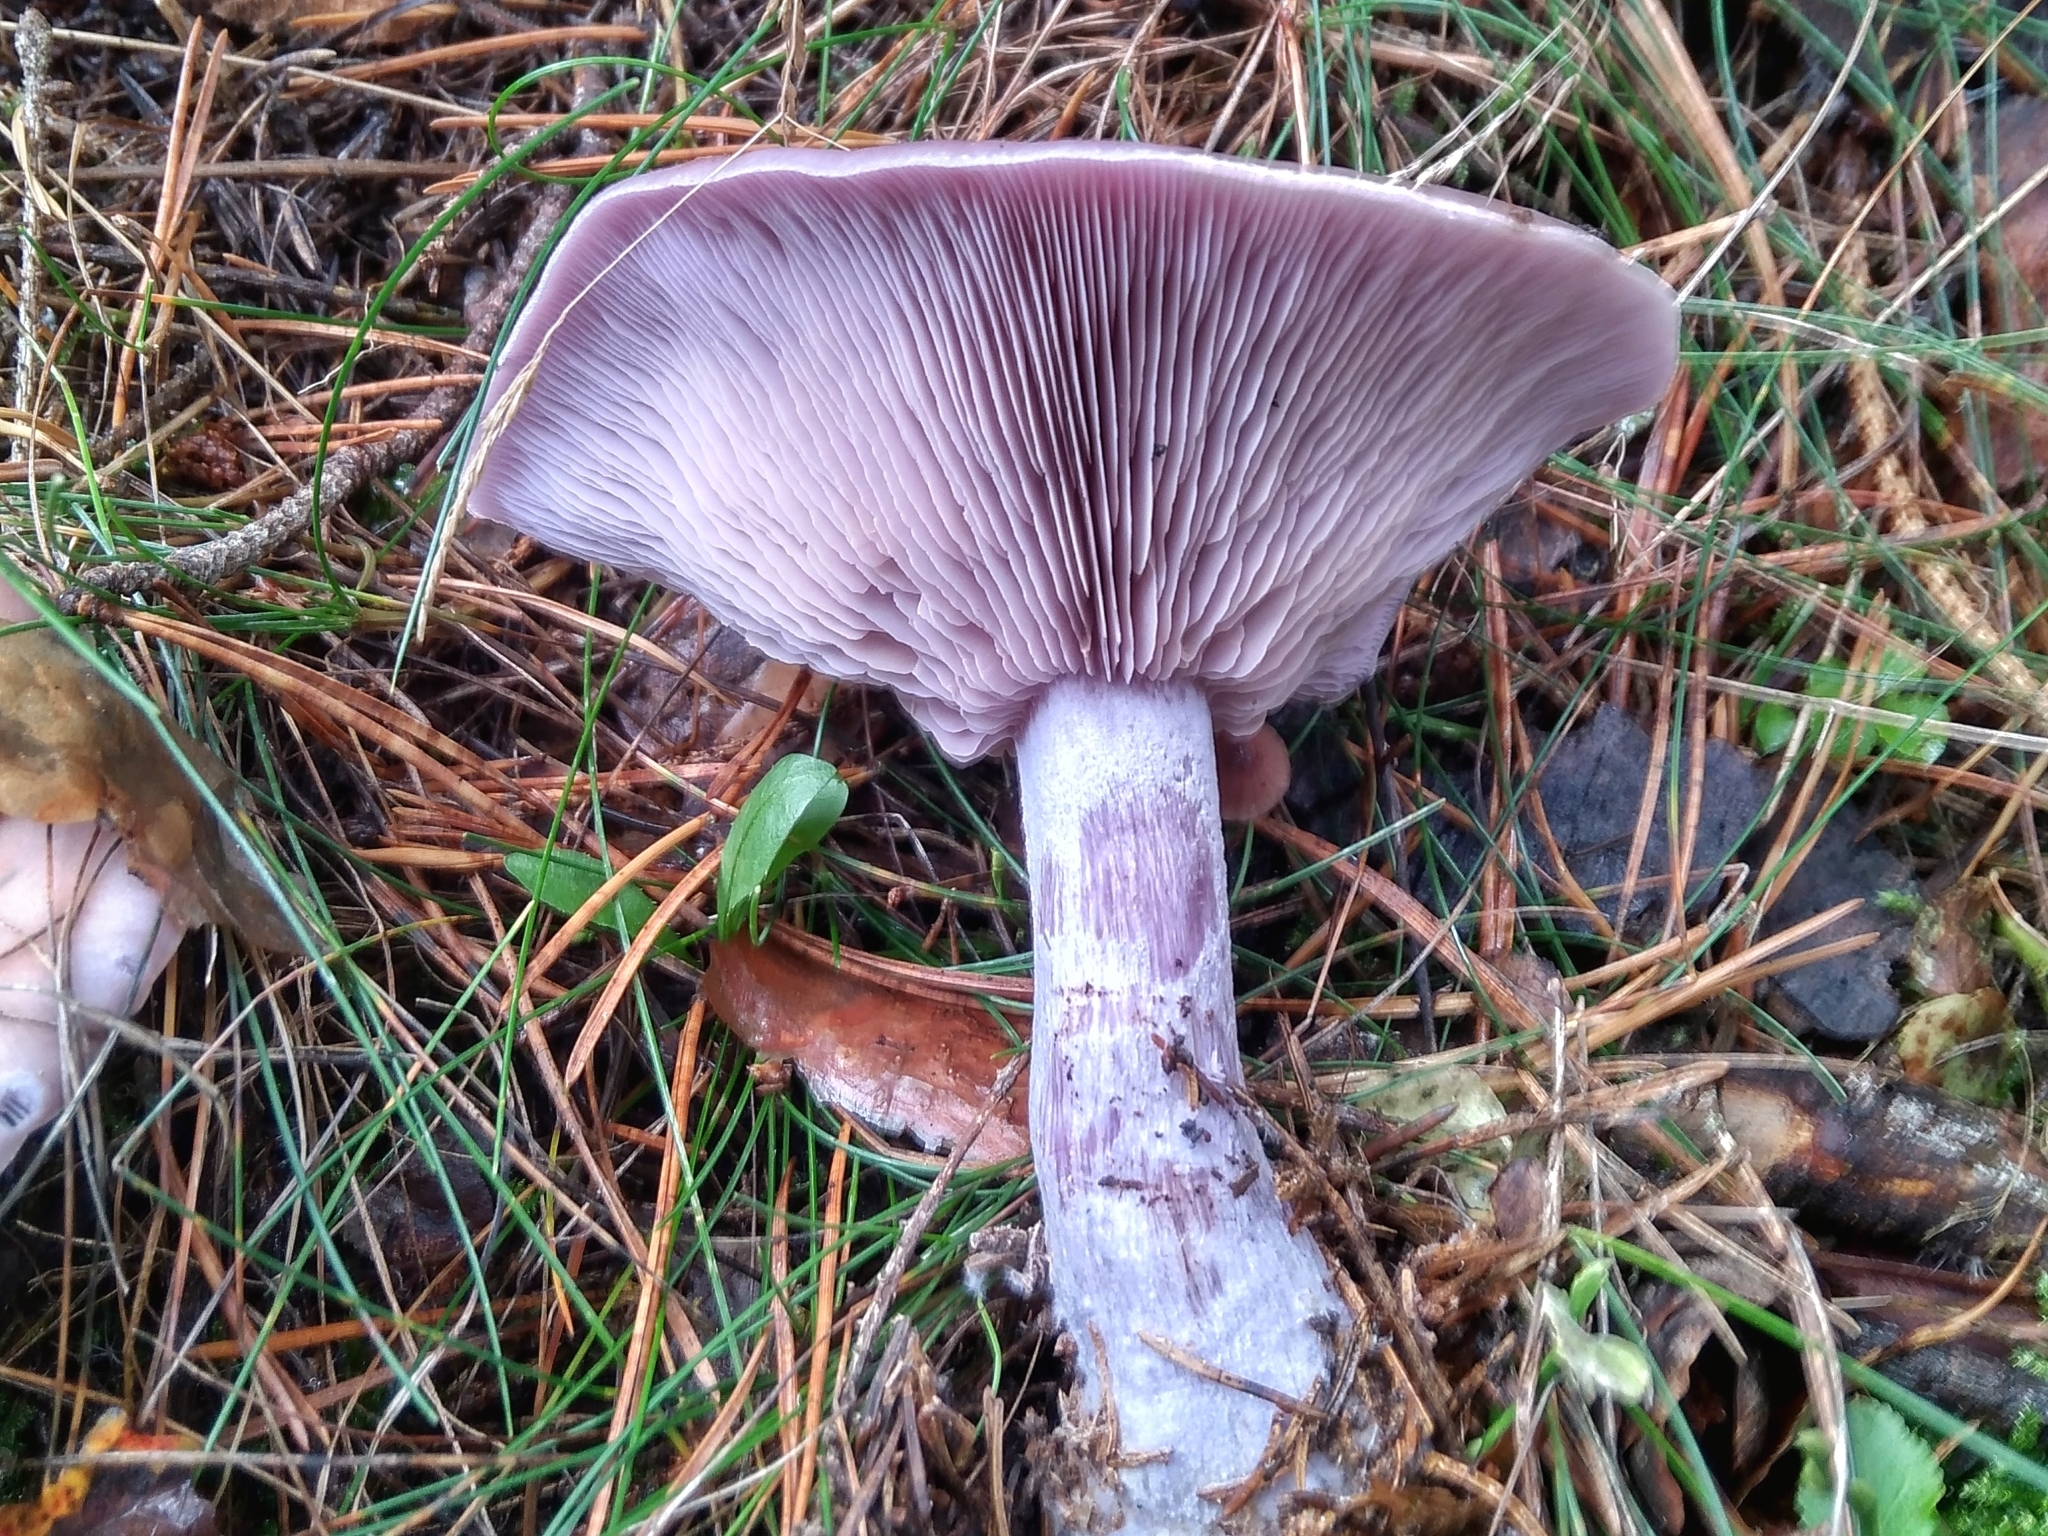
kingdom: Fungi
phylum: Basidiomycota
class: Agaricomycetes
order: Agaricales
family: Tricholomataceae
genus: Collybia
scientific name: Collybia
